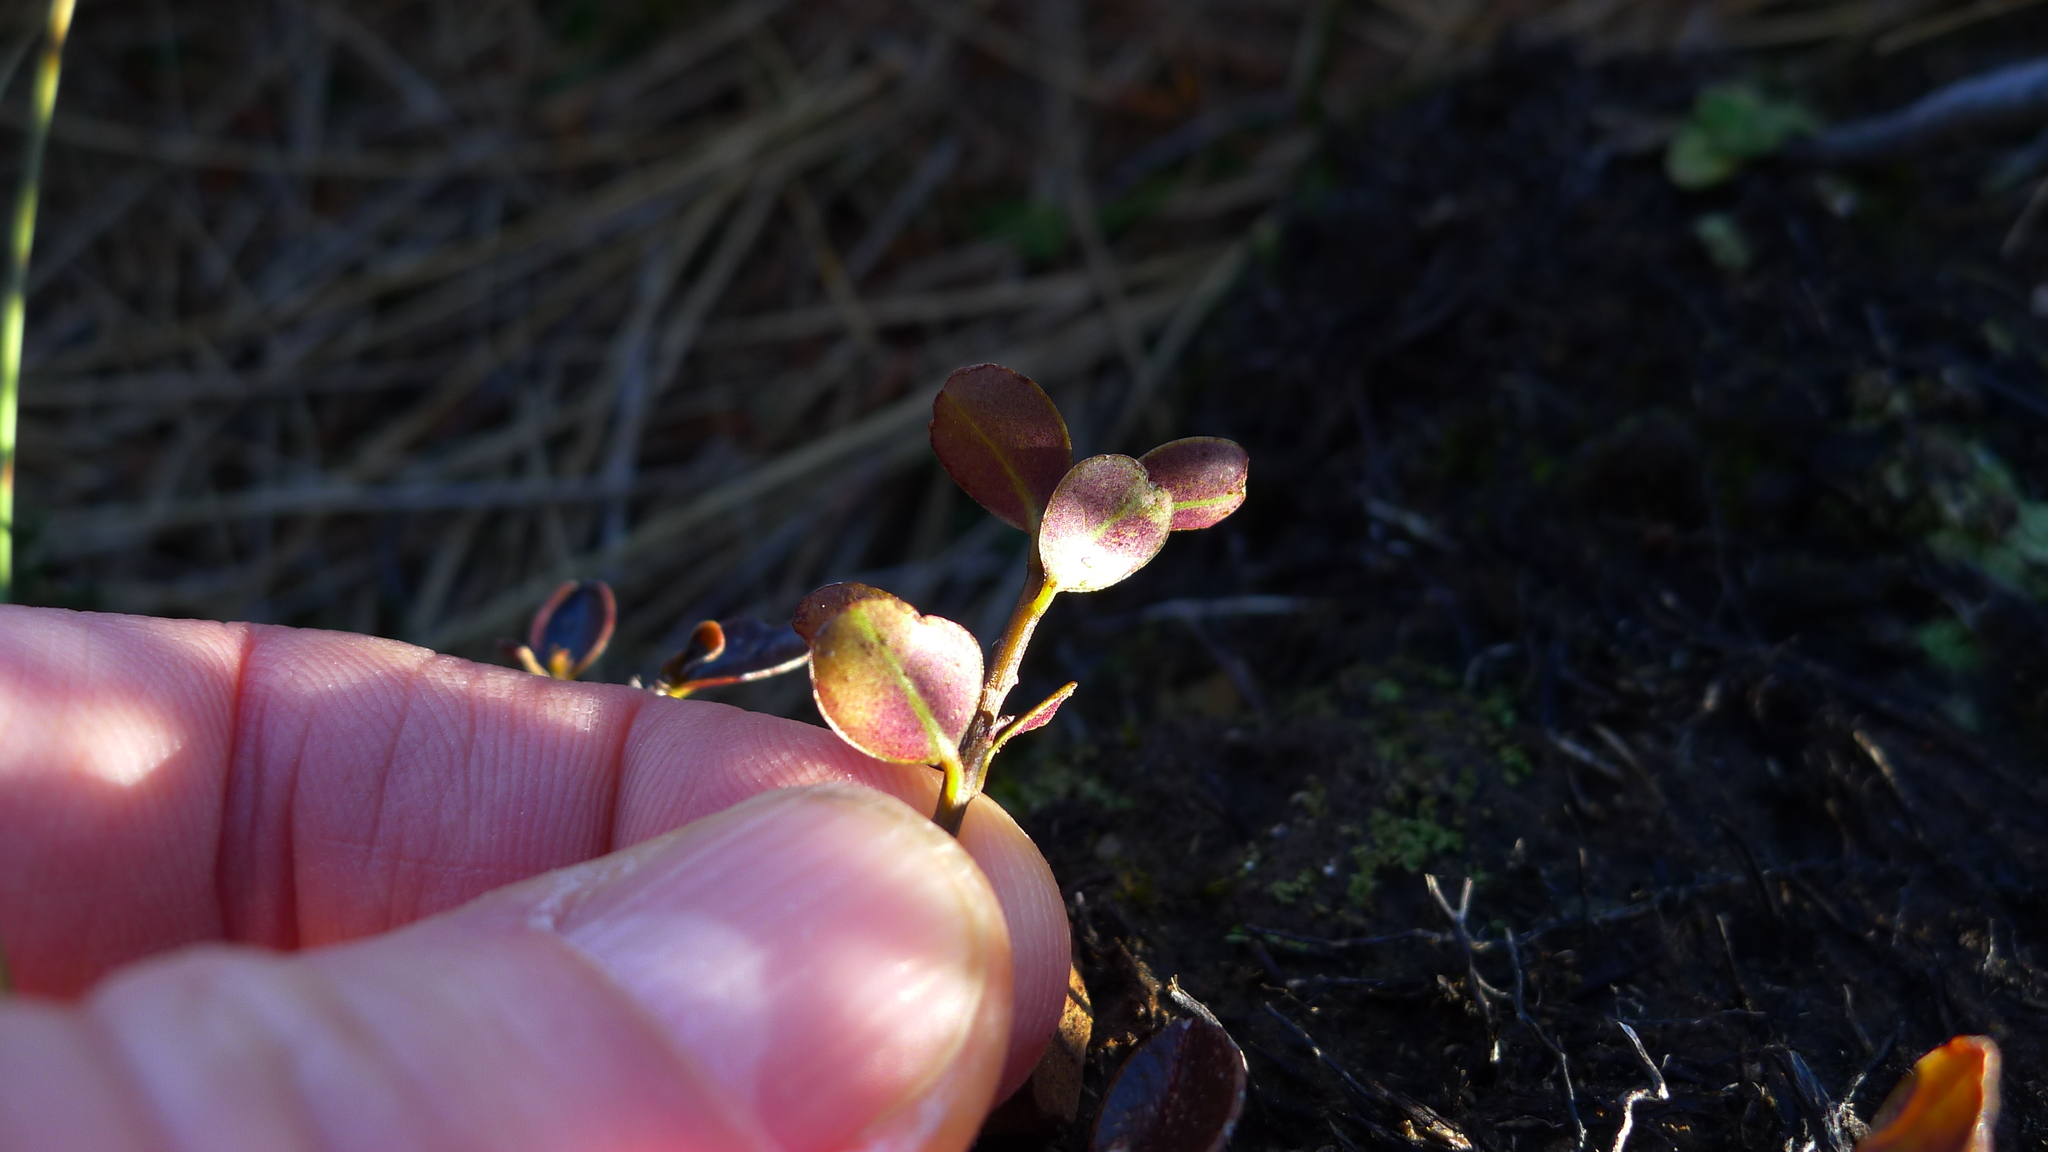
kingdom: Plantae
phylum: Tracheophyta
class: Magnoliopsida
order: Ericales
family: Primulaceae
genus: Myrsine
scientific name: Myrsine nummularia
